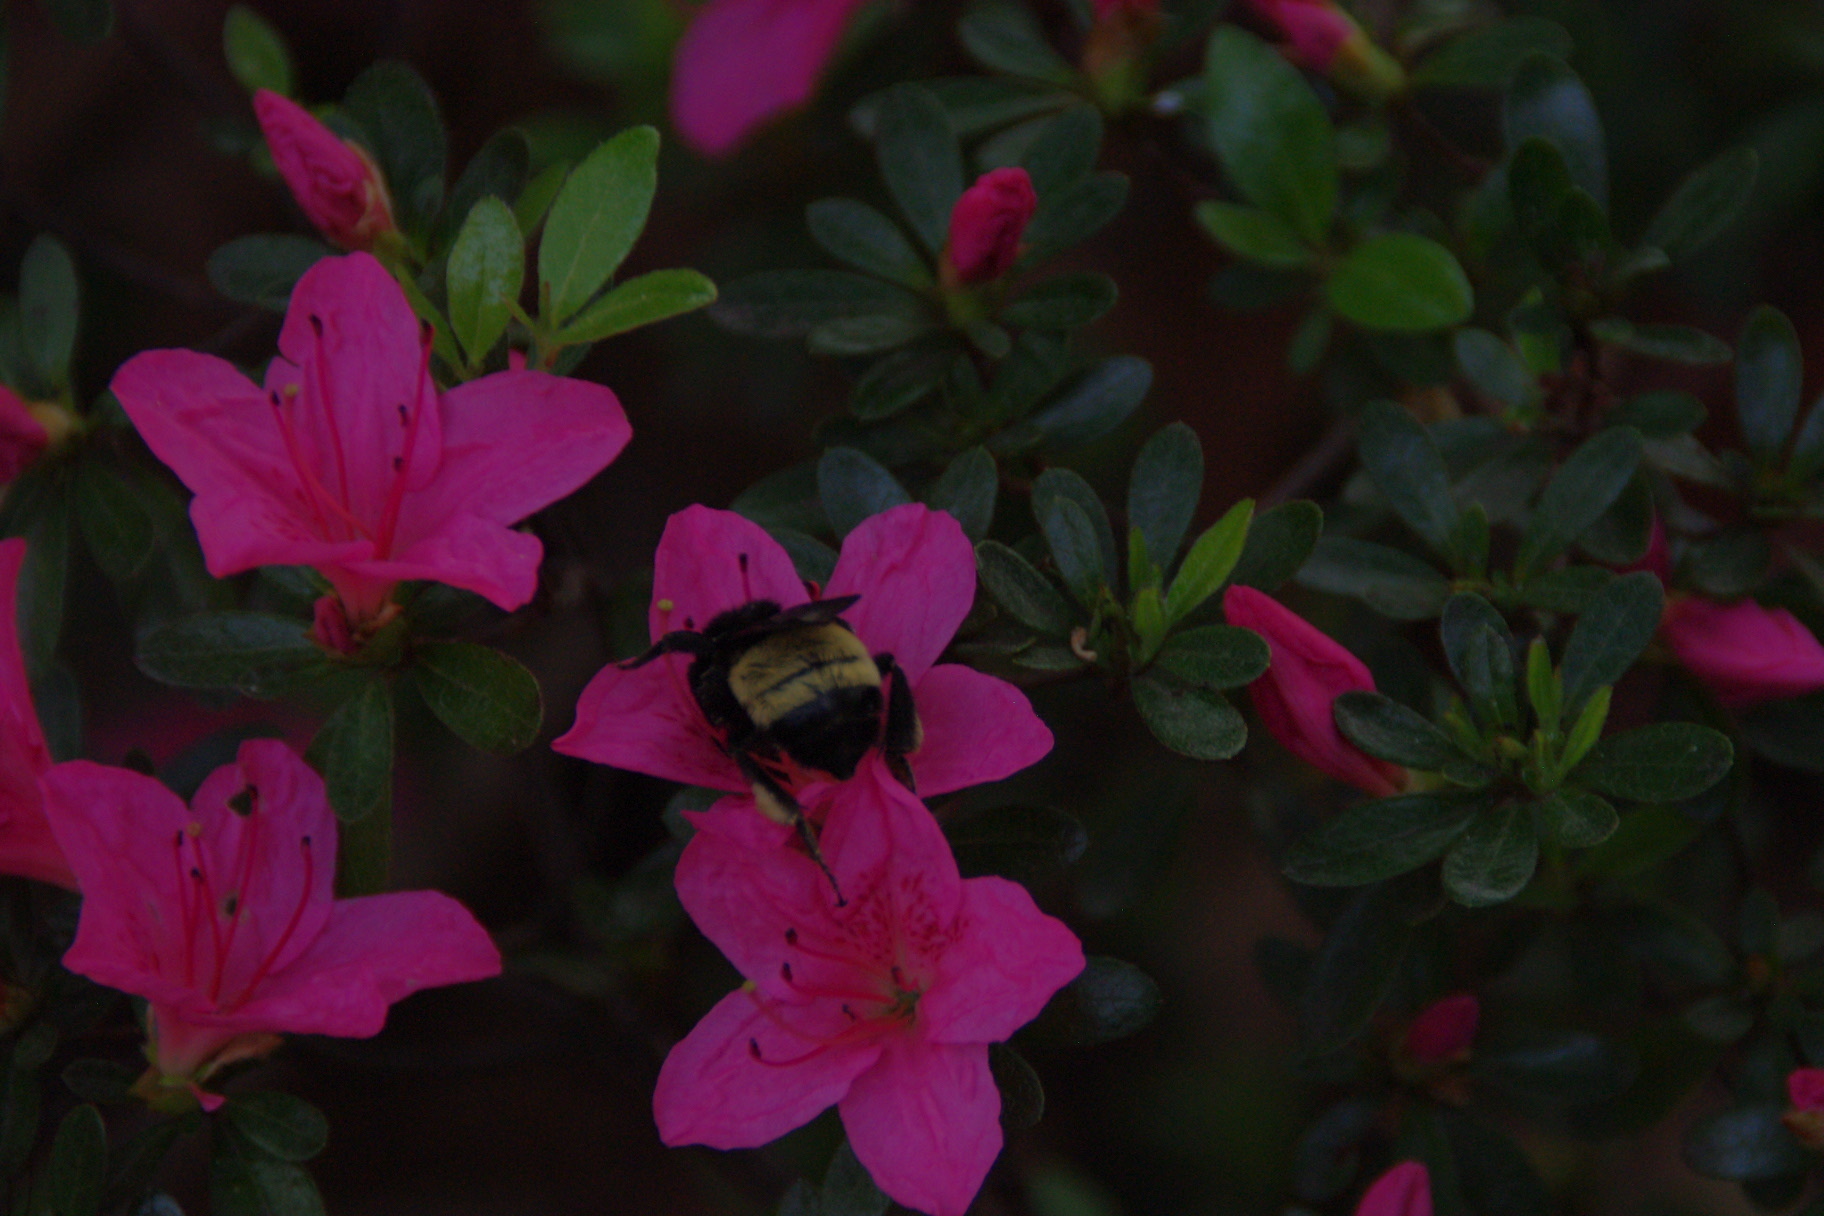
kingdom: Animalia
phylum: Arthropoda
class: Insecta
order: Hymenoptera
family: Apidae
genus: Bombus
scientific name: Bombus pensylvanicus
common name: Bumble bee
